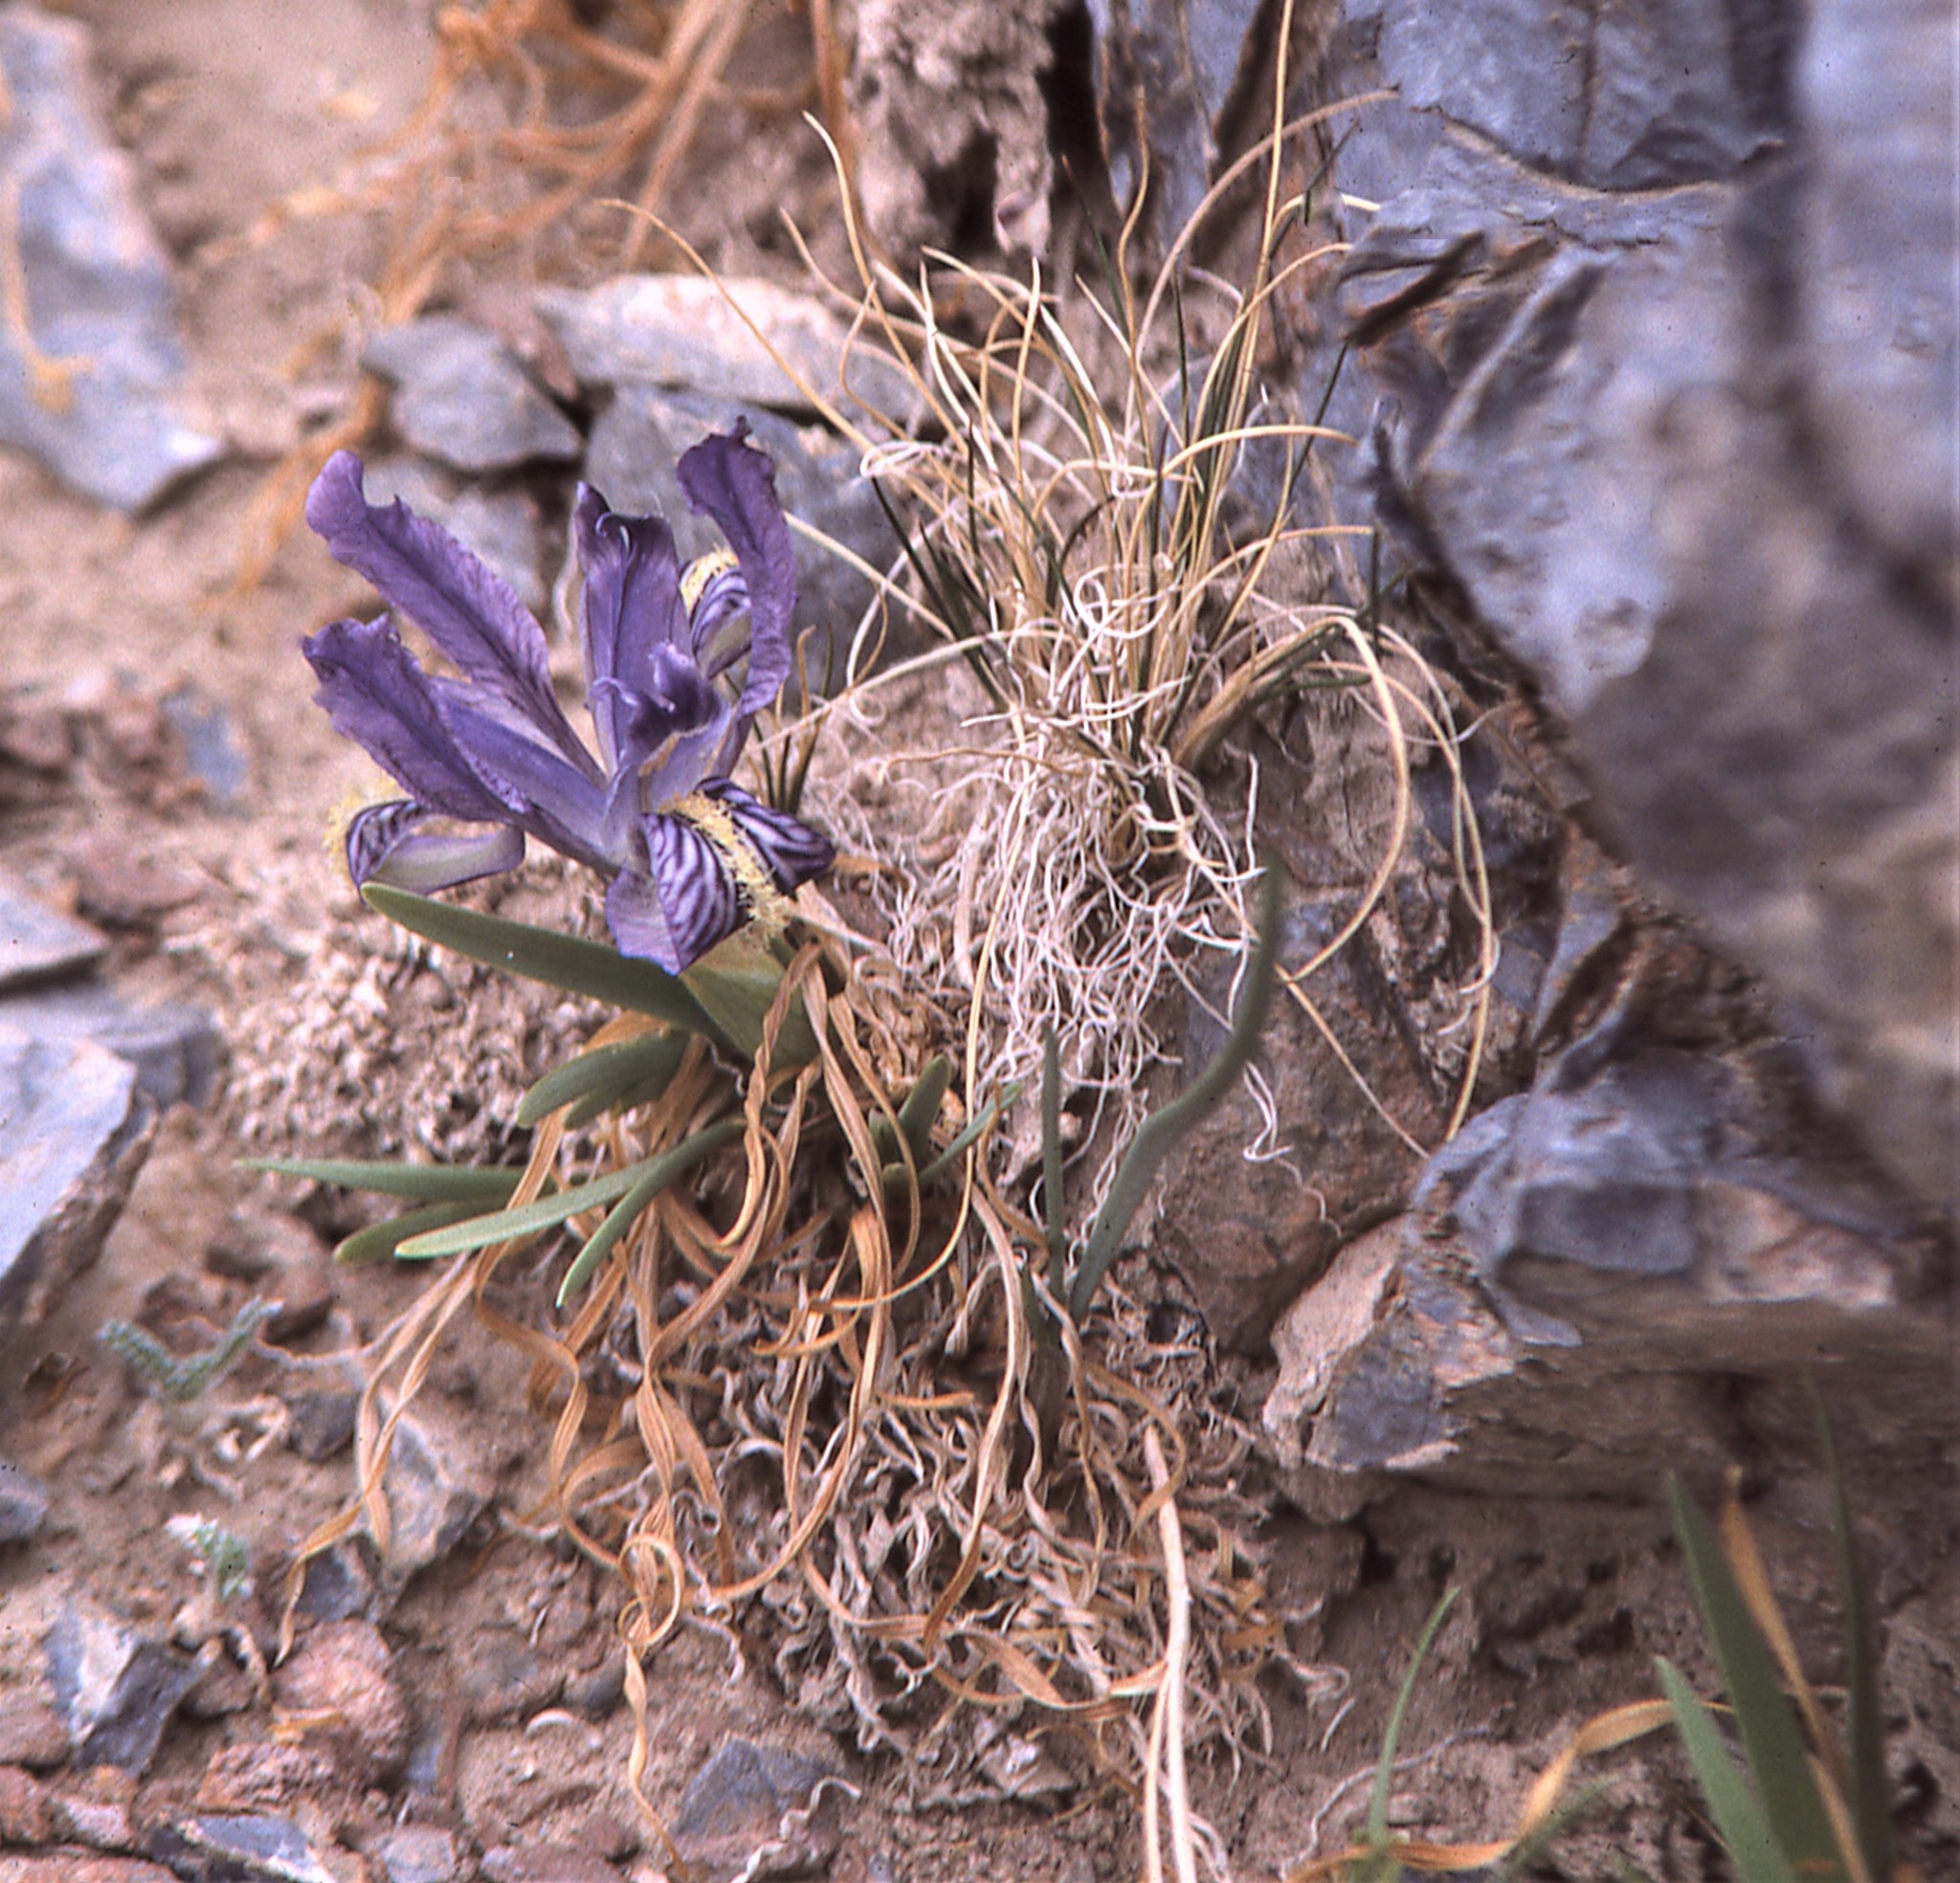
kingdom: Plantae
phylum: Tracheophyta
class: Liliopsida
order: Asparagales
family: Iridaceae
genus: Iris
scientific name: Iris potaninii
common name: Curl-sheath iris
